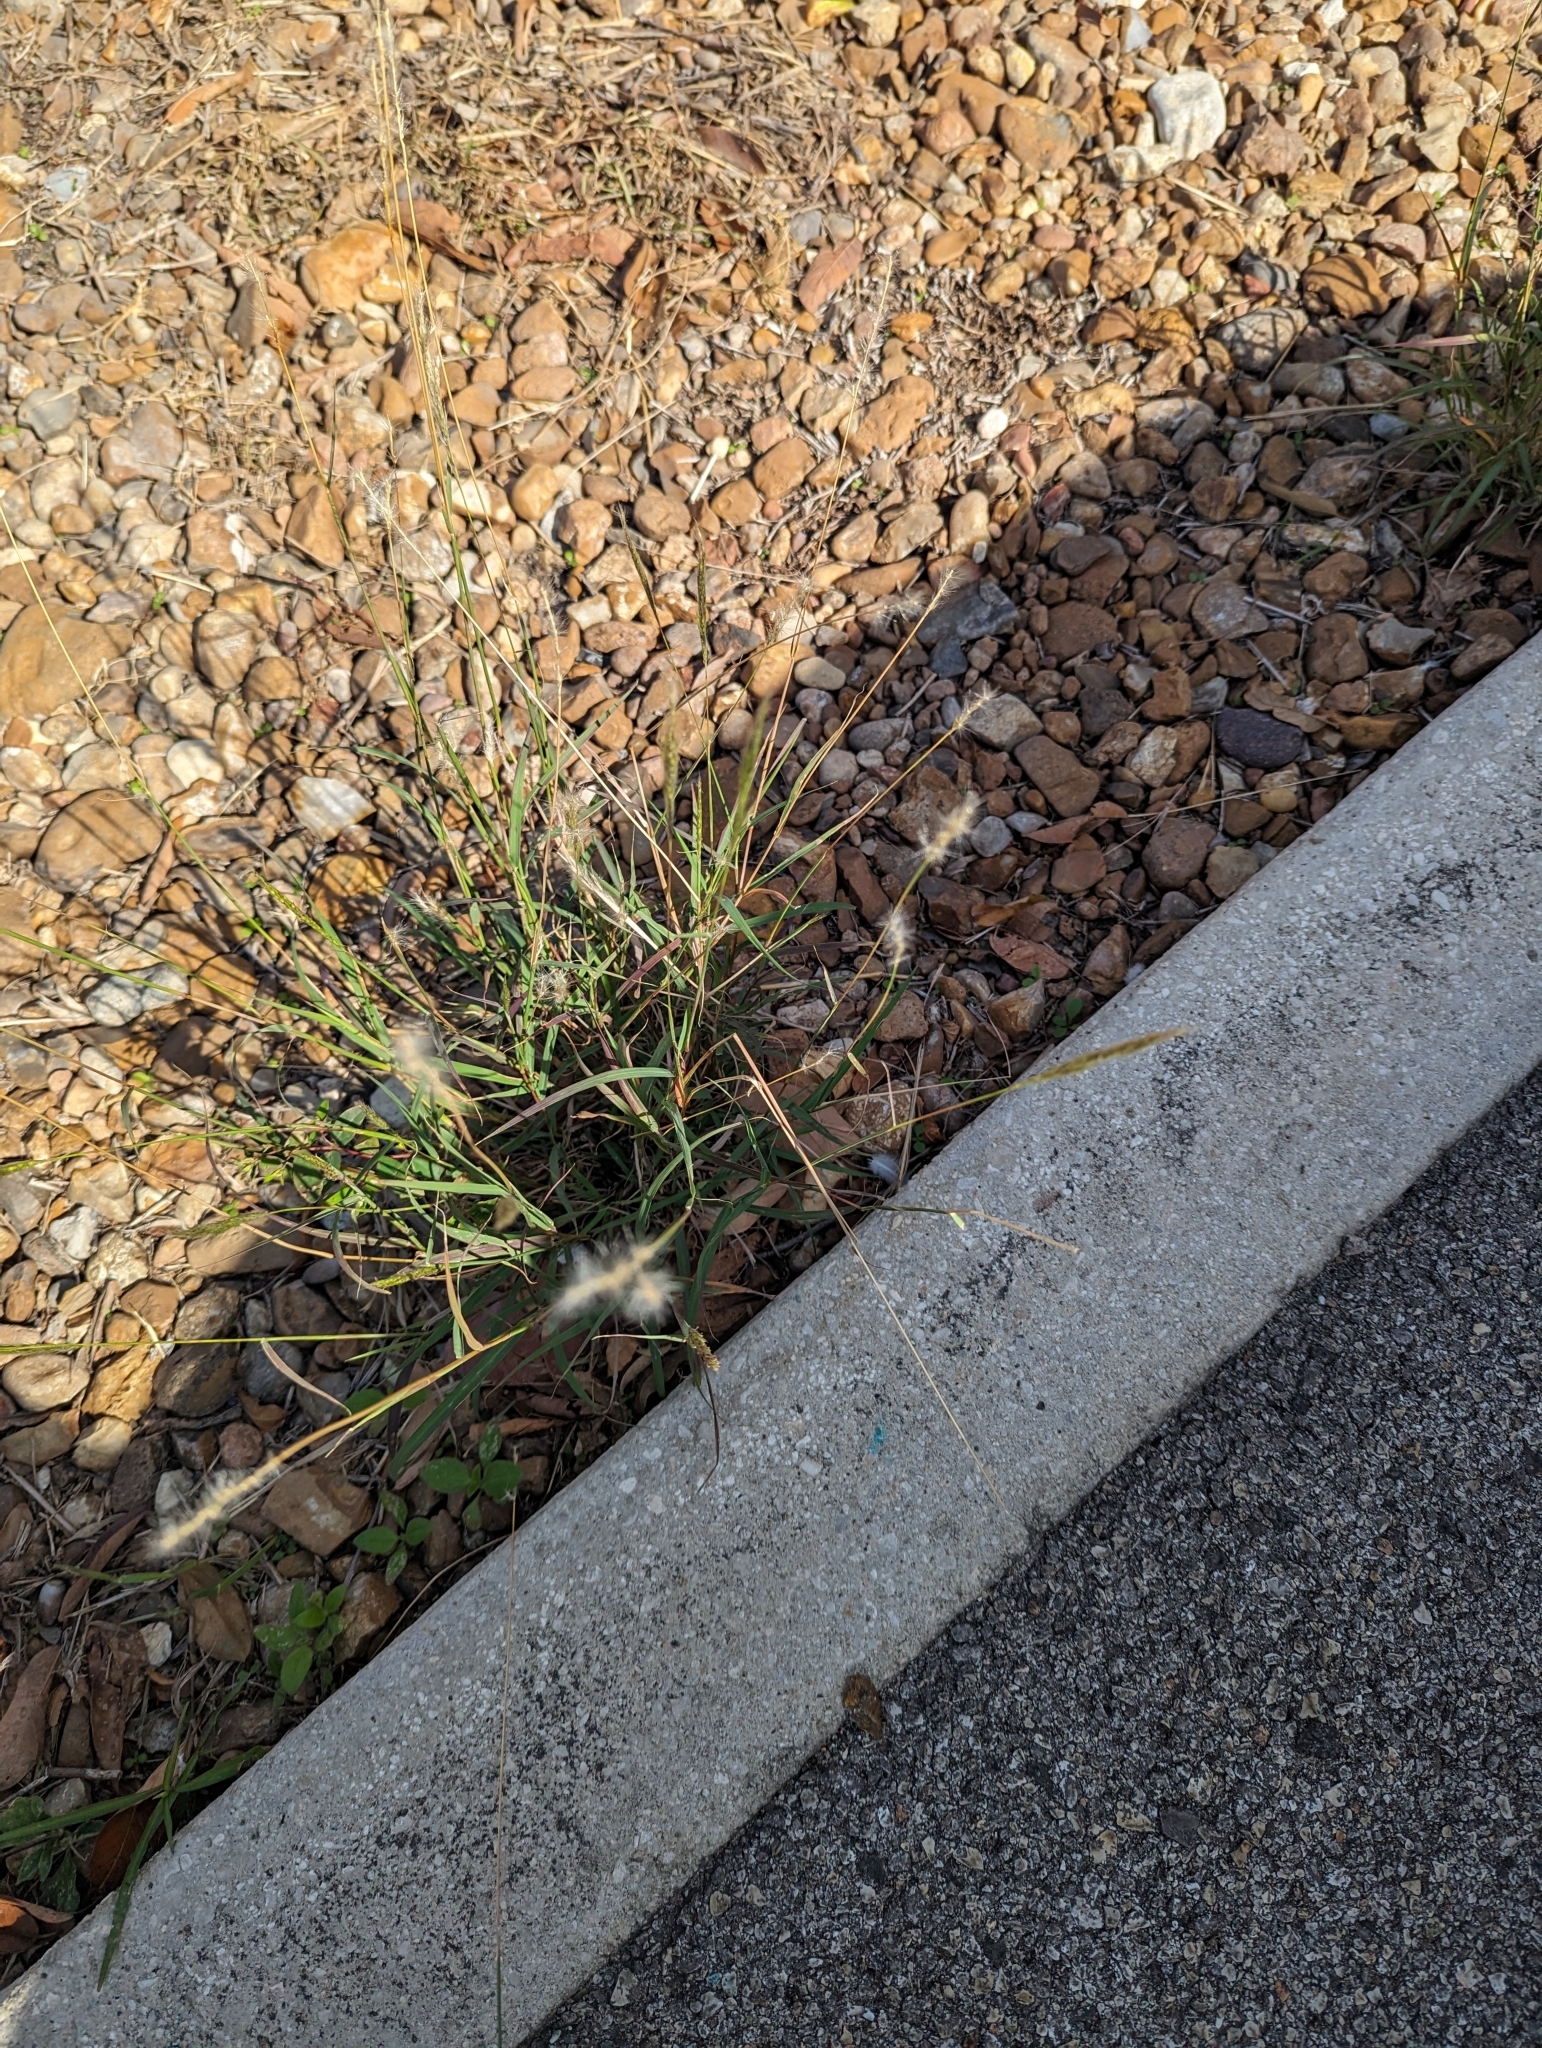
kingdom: Plantae
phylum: Tracheophyta
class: Liliopsida
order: Poales
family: Poaceae
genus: Bothriochloa
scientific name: Bothriochloa torreyana
